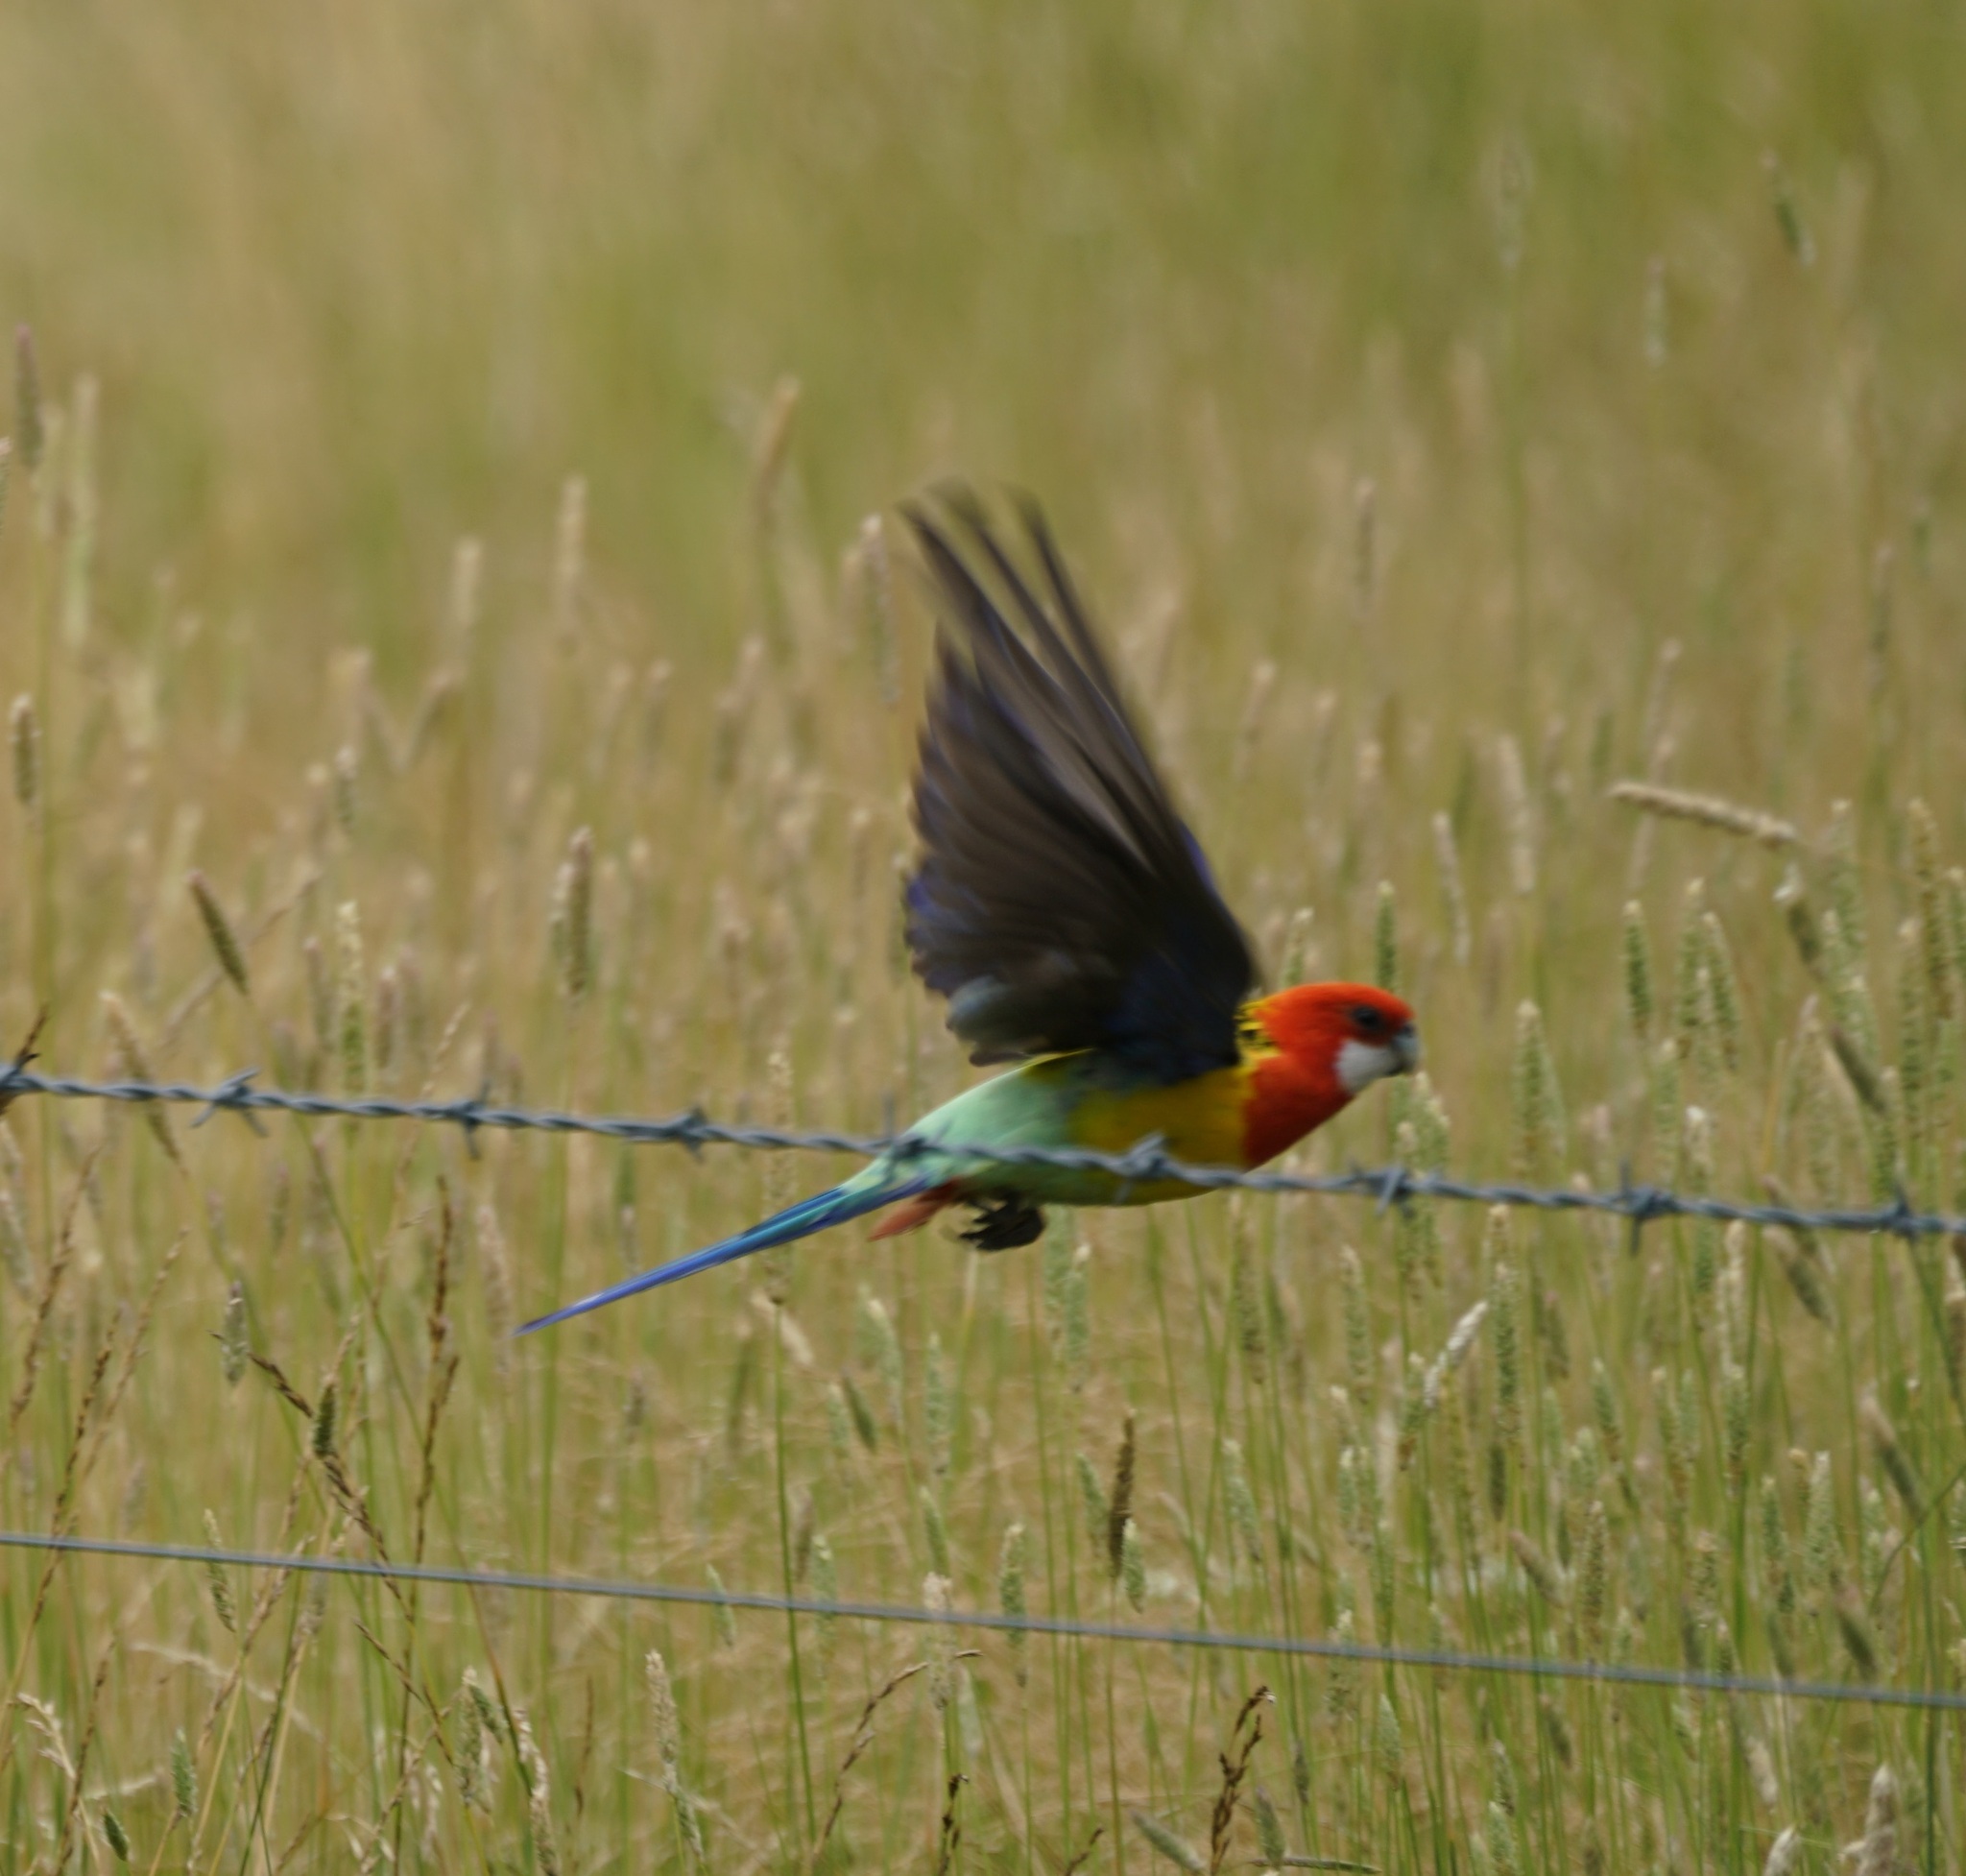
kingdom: Animalia
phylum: Chordata
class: Aves
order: Psittaciformes
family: Psittacidae
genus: Platycercus
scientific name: Platycercus eximius
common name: Eastern rosella
